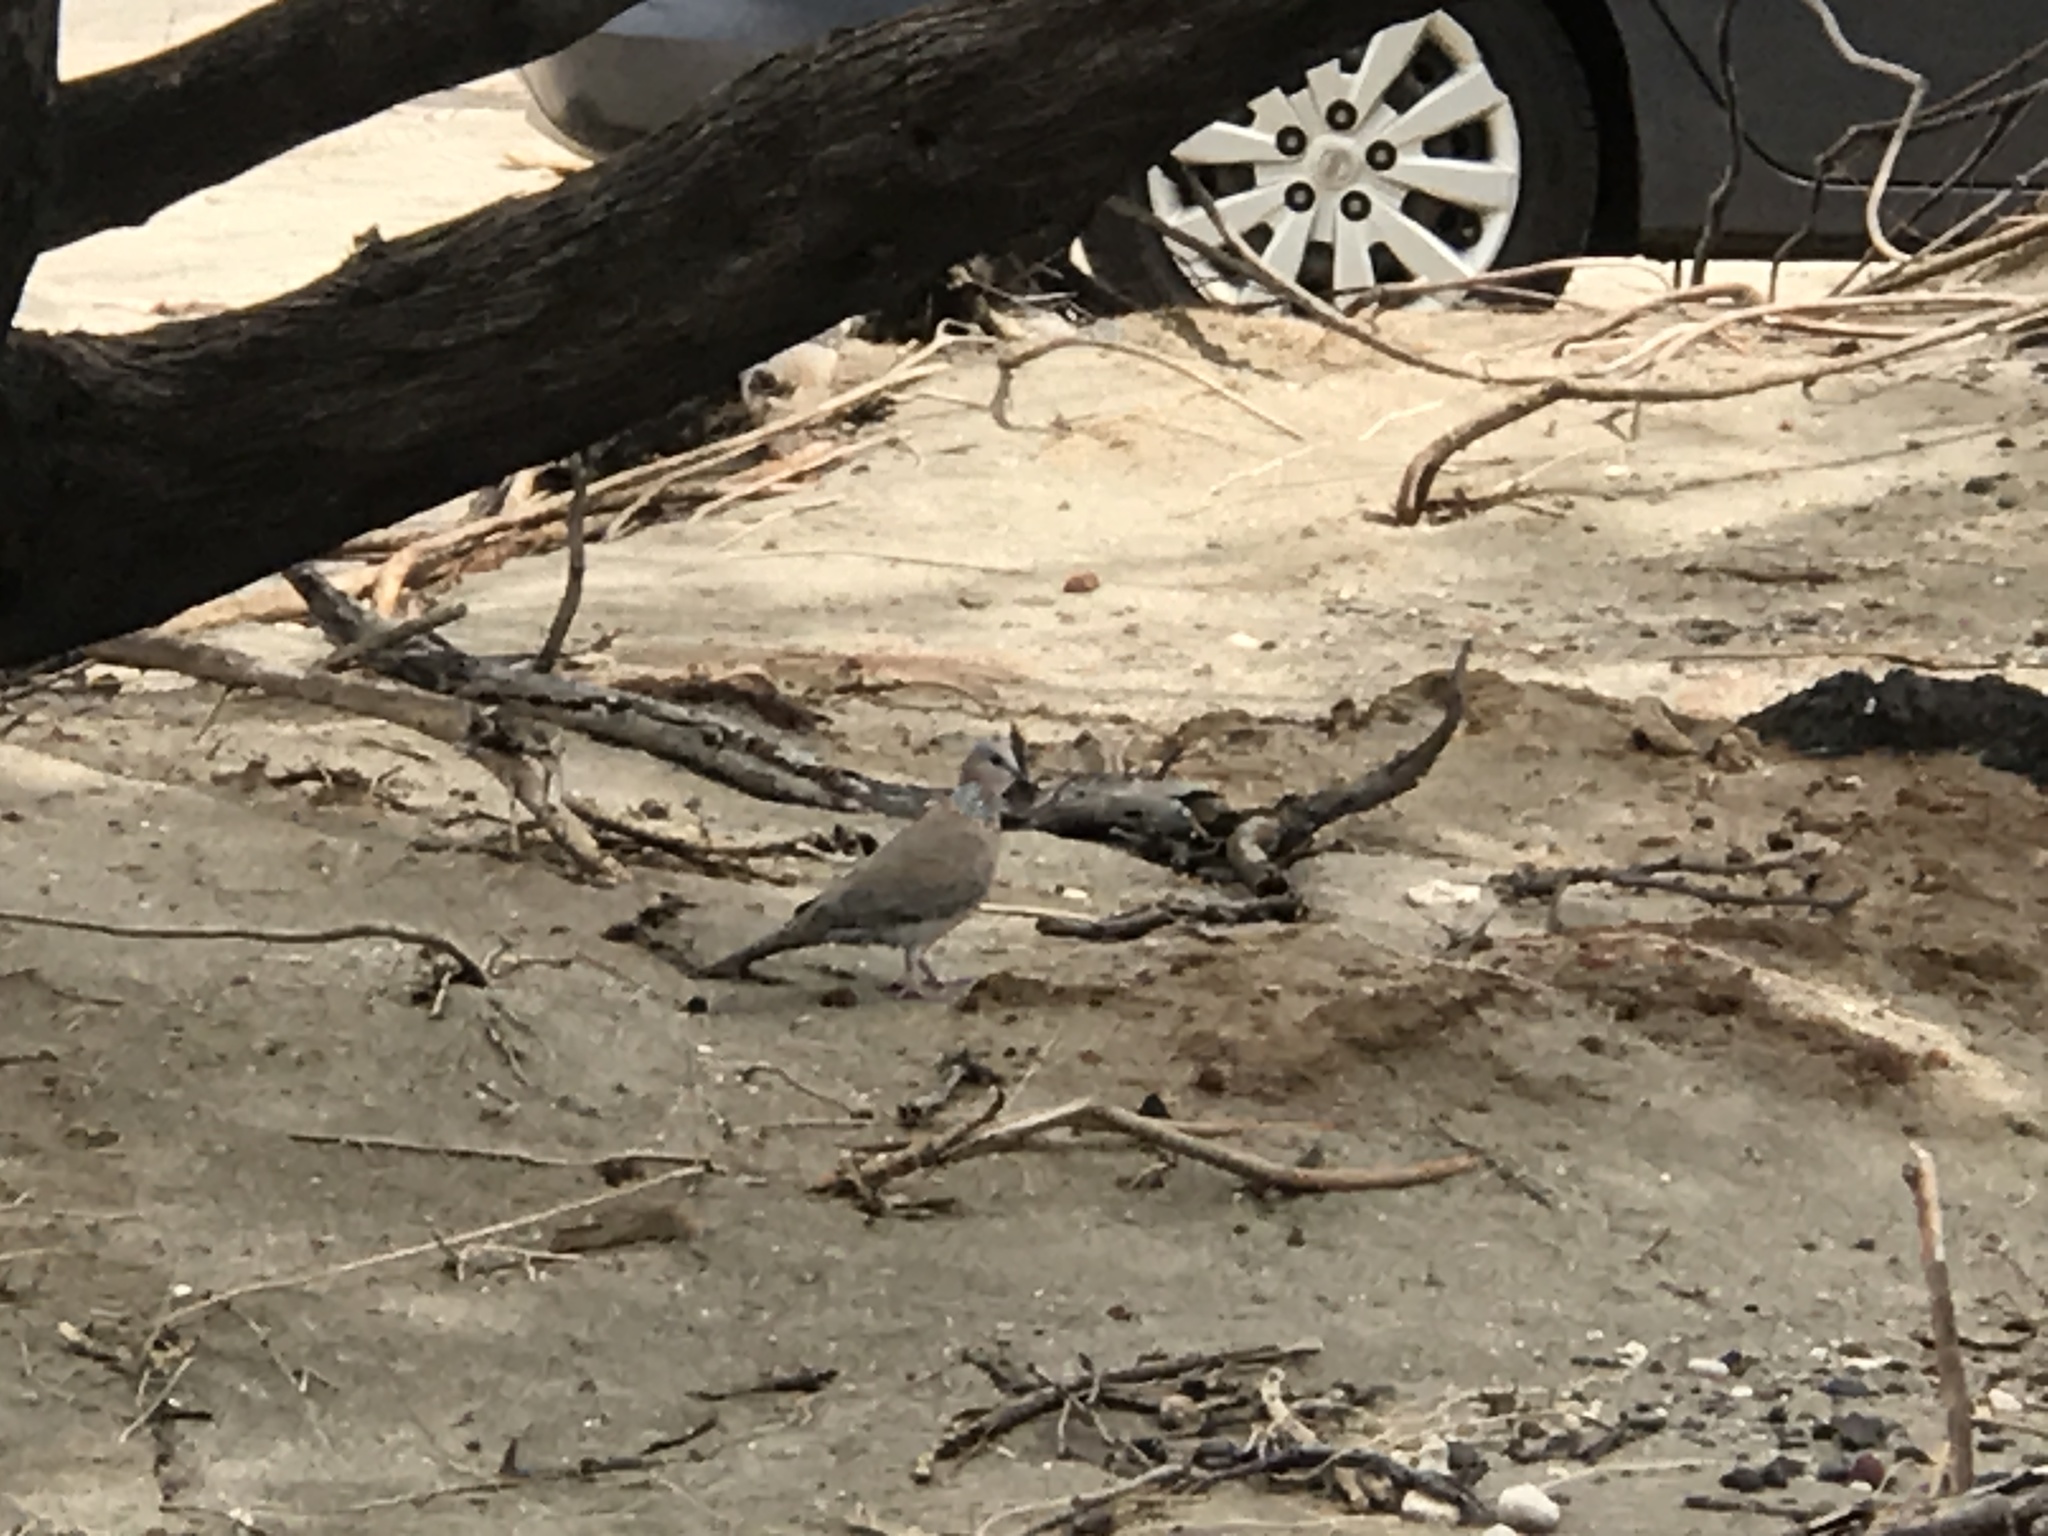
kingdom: Animalia
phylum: Chordata
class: Aves
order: Columbiformes
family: Columbidae
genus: Spilopelia
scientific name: Spilopelia chinensis
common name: Spotted dove
